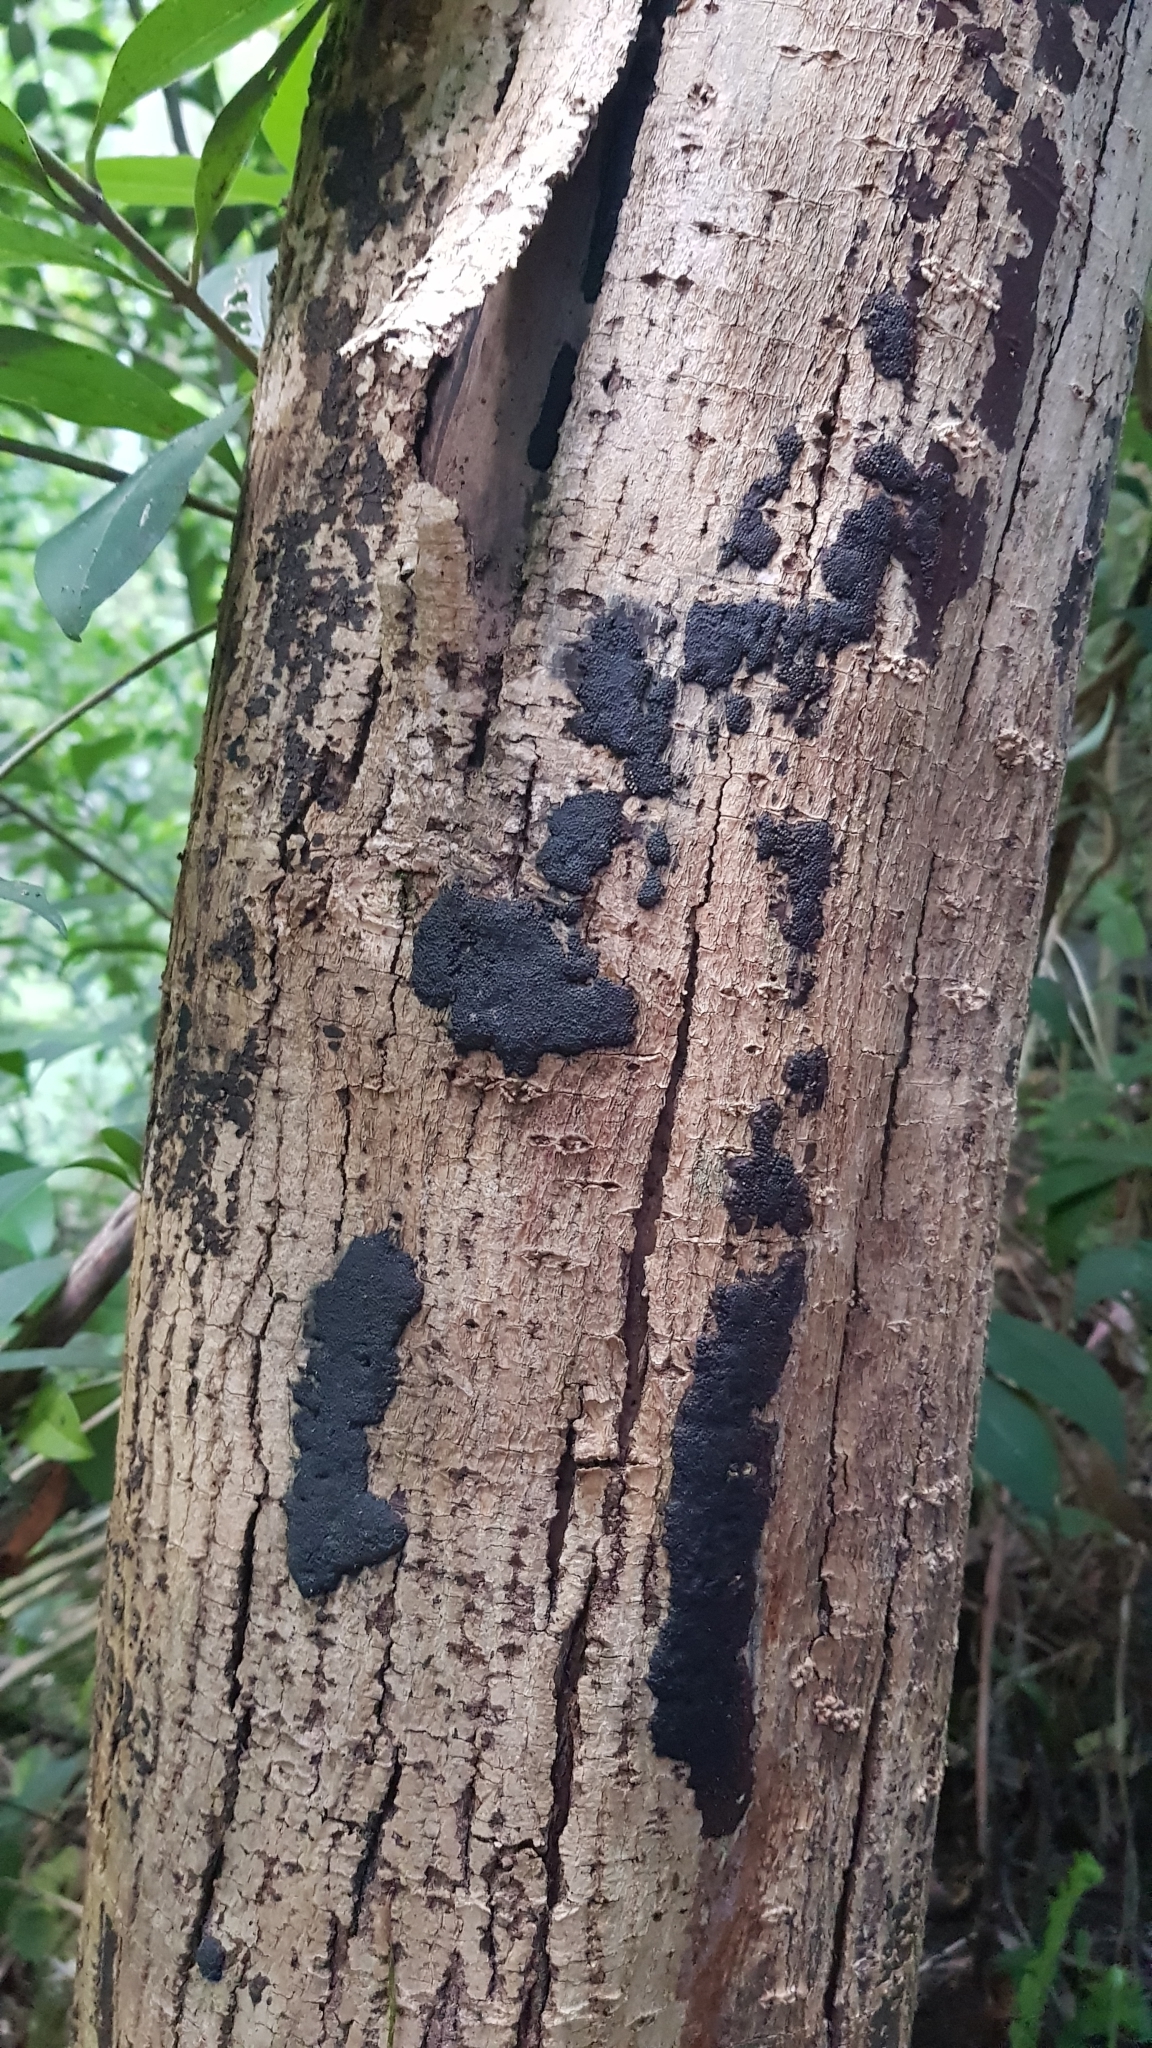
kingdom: Fungi
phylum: Ascomycota
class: Sordariomycetes
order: Xylariales
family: Hypoxylaceae
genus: Annulohypoxylon
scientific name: Annulohypoxylon bovei
